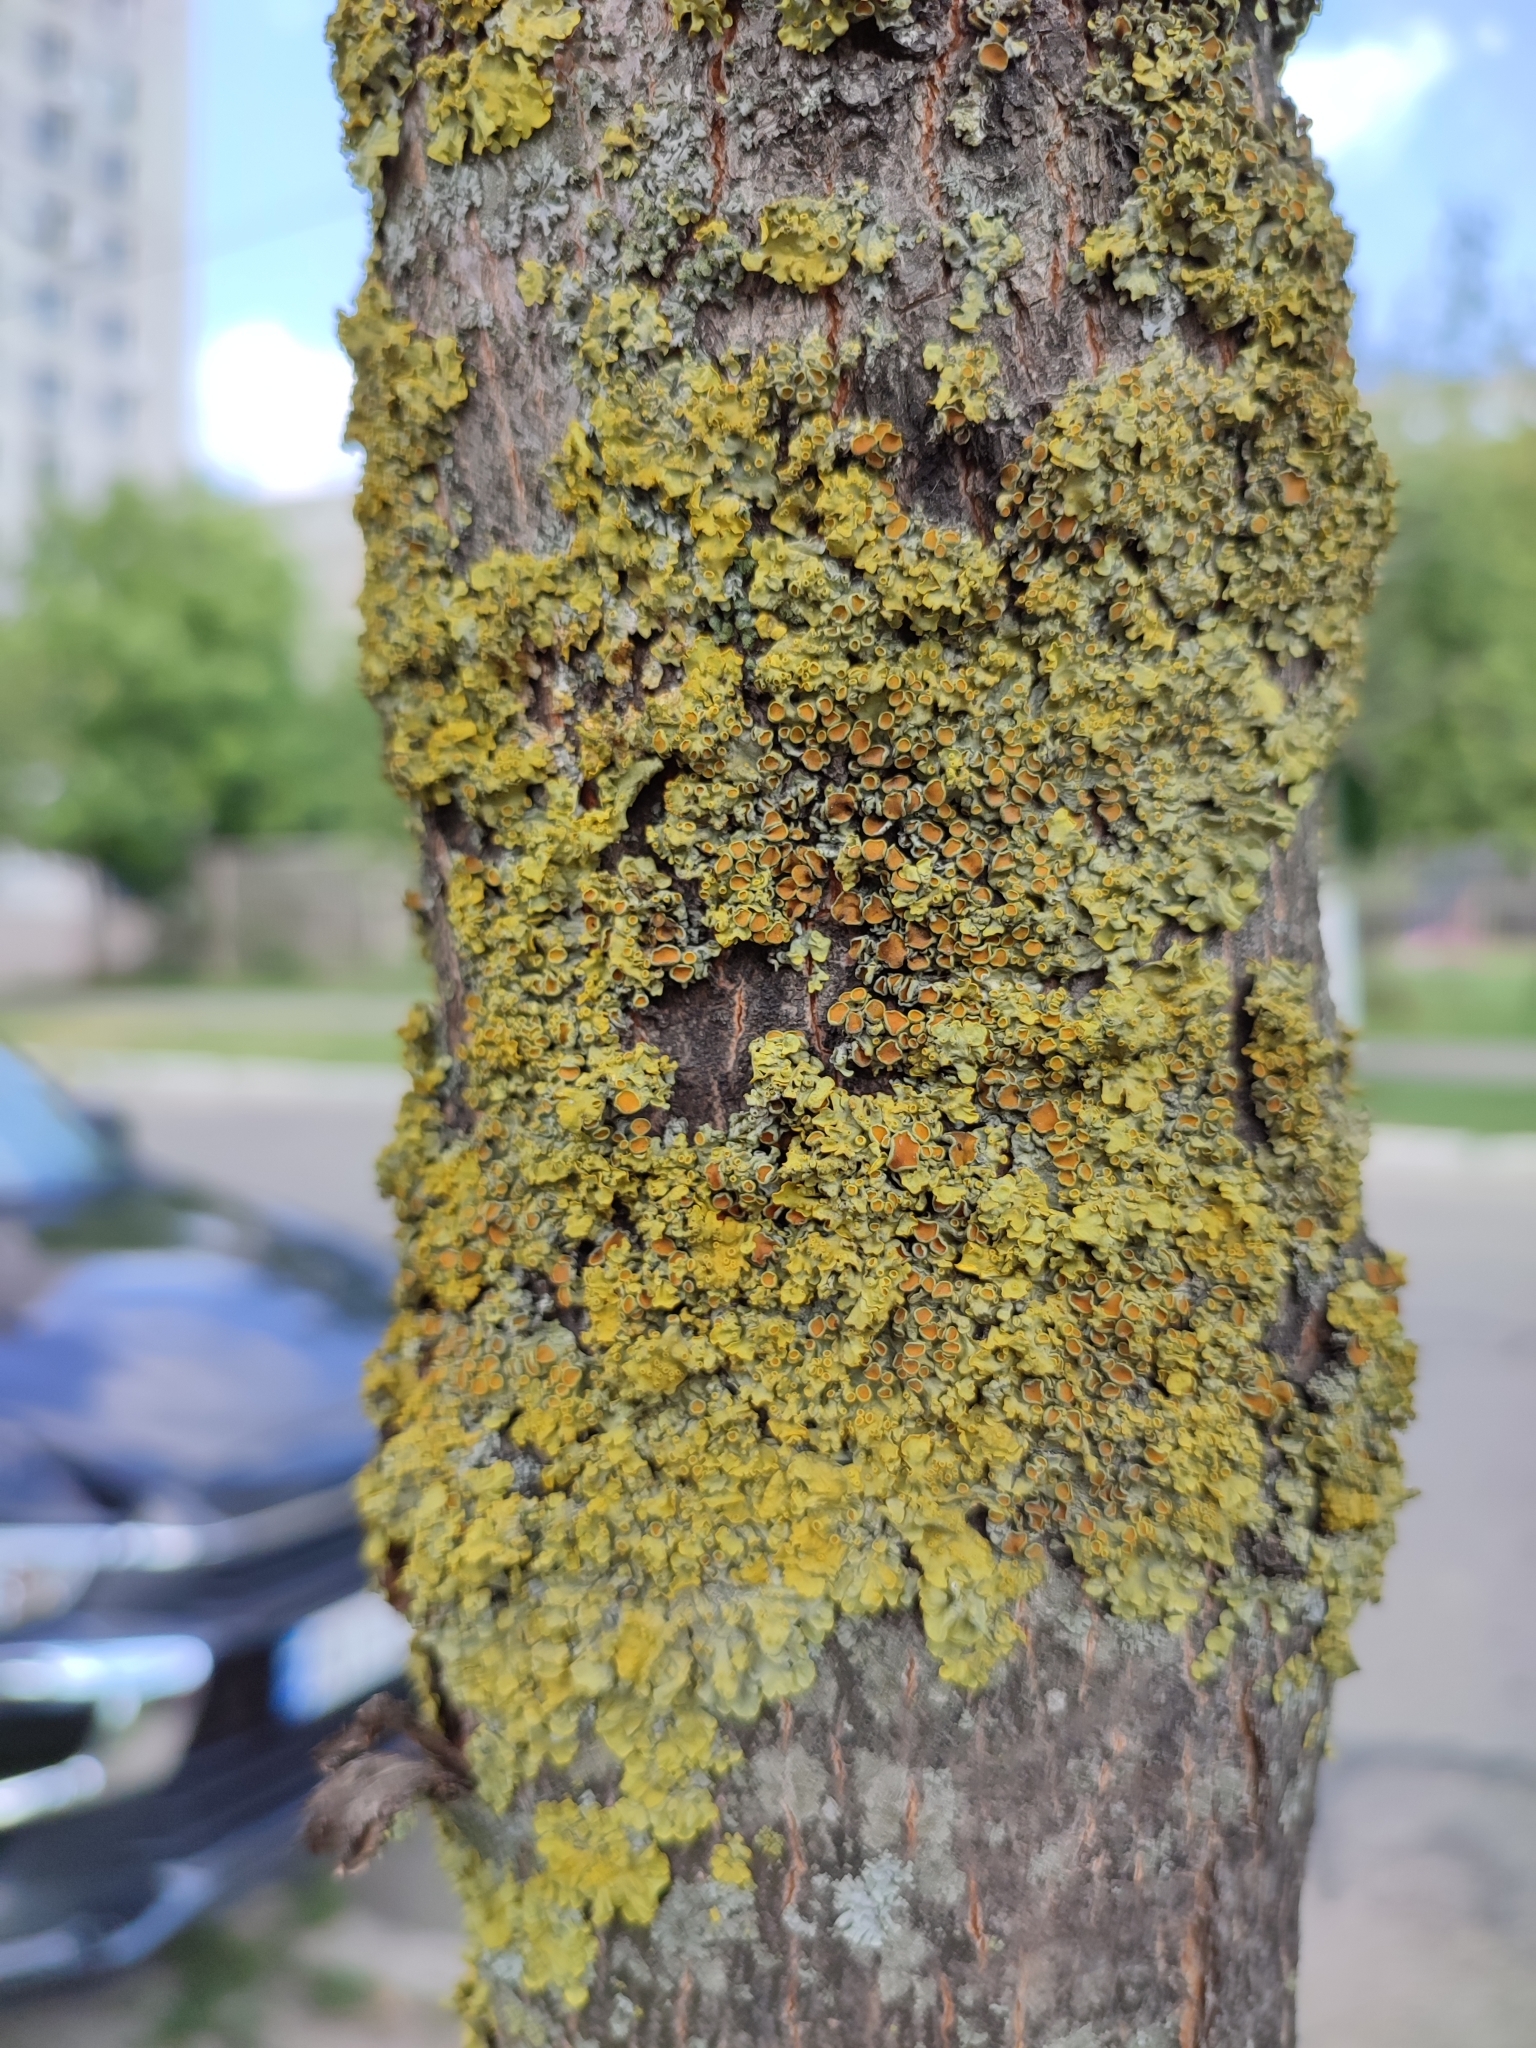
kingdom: Fungi
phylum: Ascomycota
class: Lecanoromycetes
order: Teloschistales
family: Teloschistaceae
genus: Xanthoria
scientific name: Xanthoria parietina
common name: Common orange lichen
